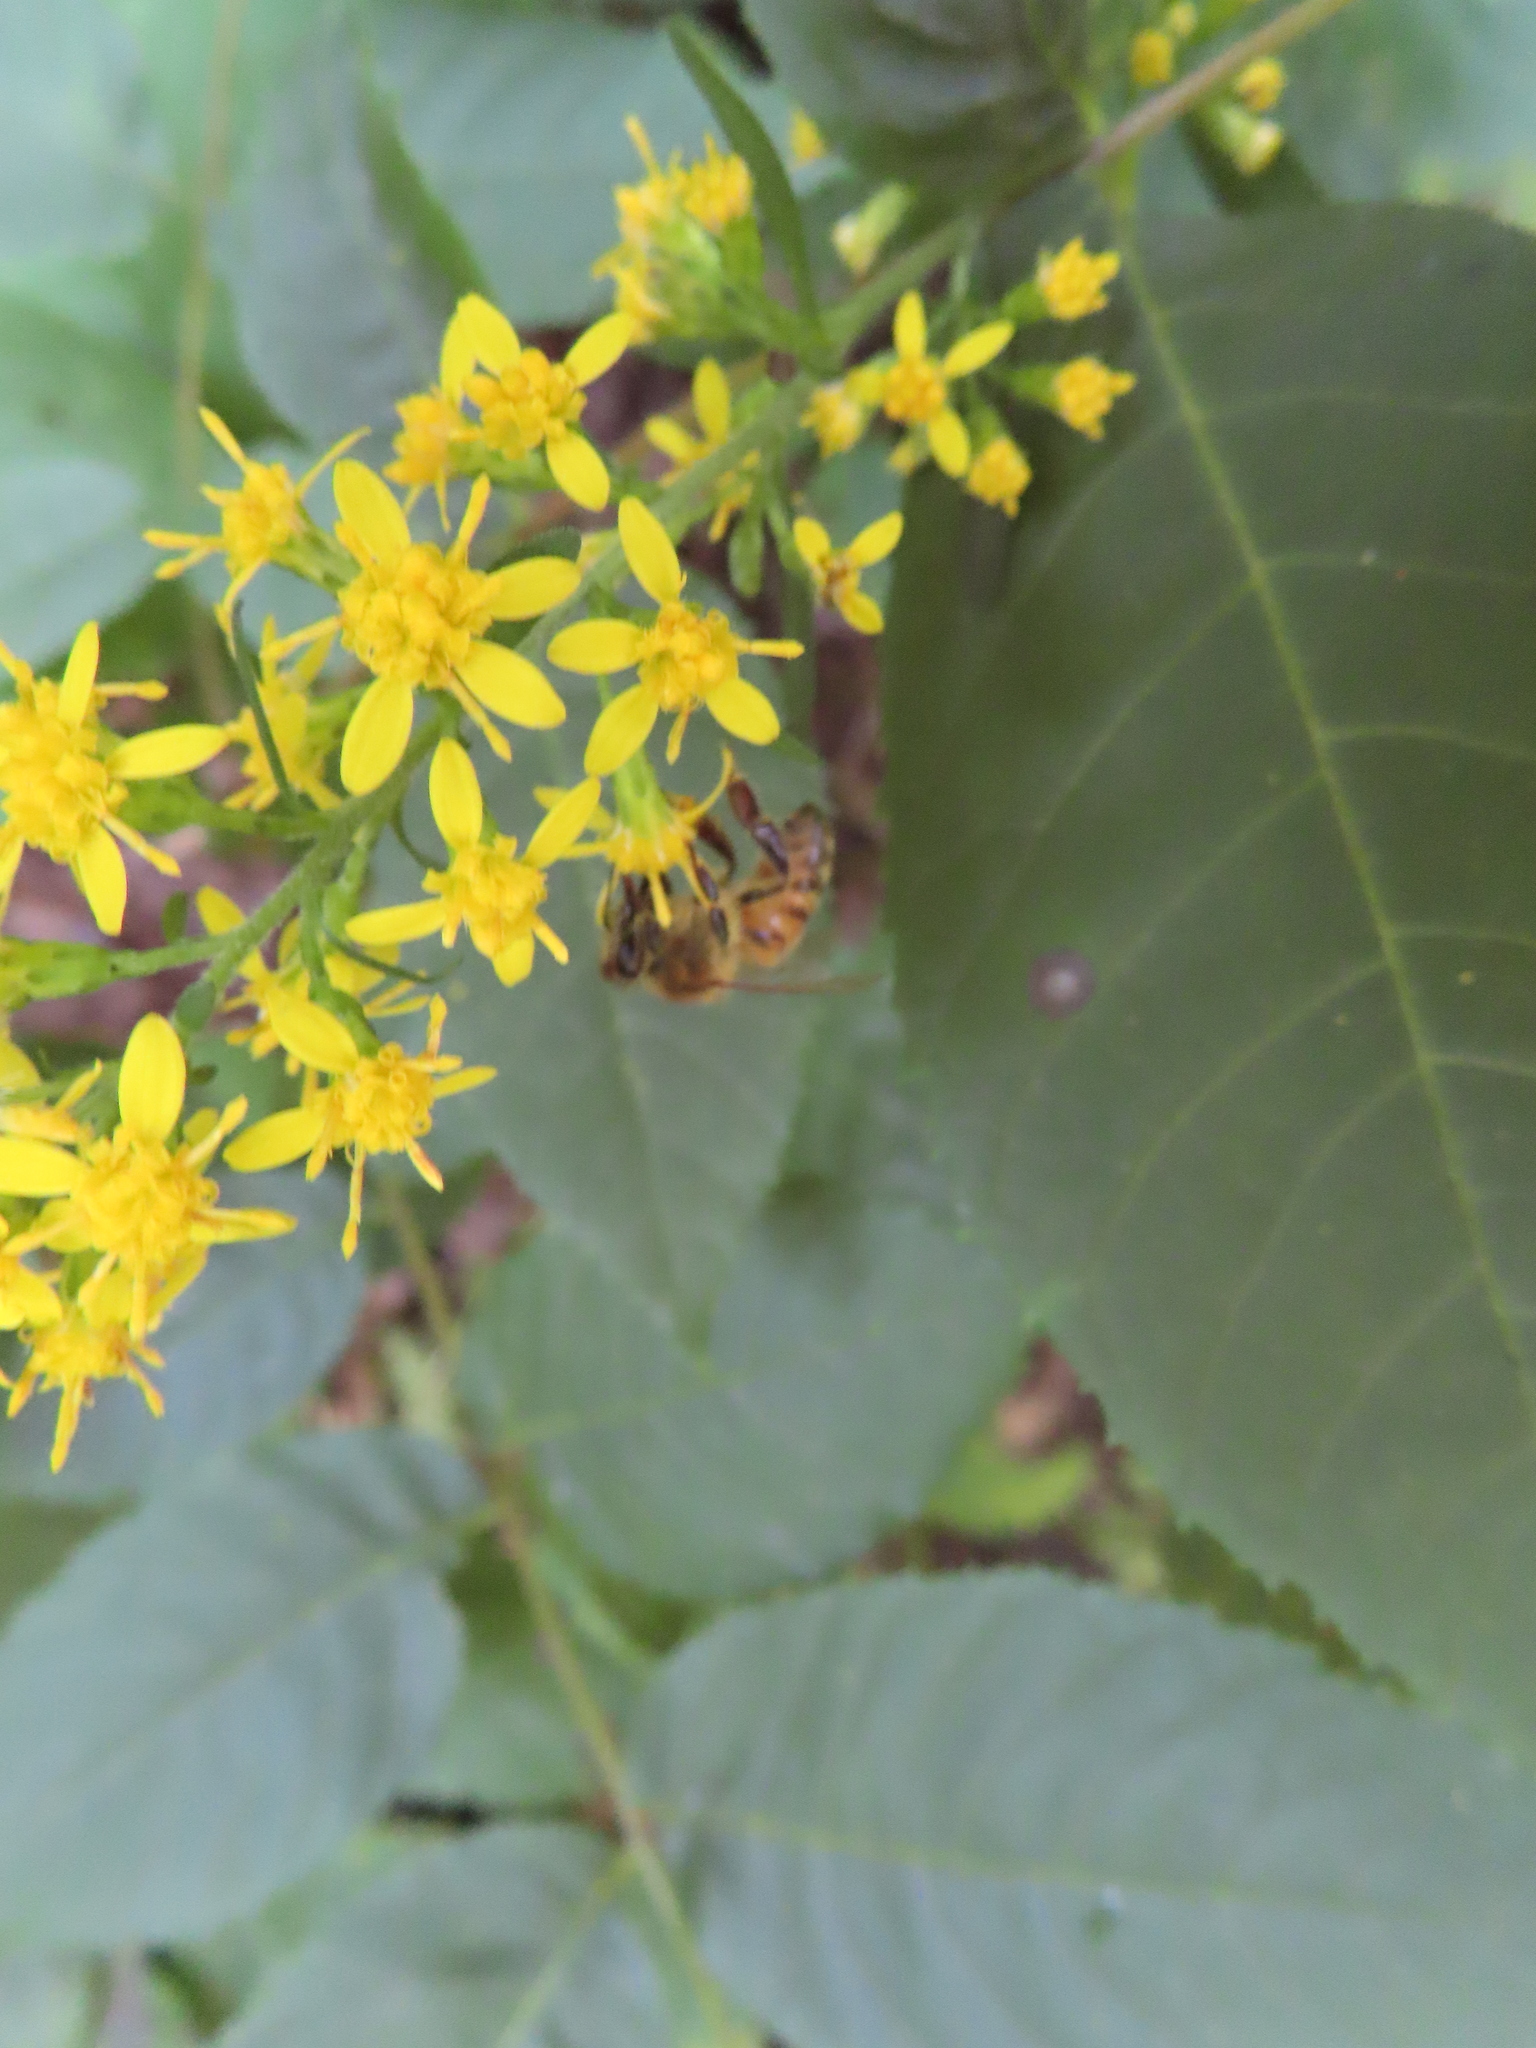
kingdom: Animalia
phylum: Arthropoda
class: Insecta
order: Hymenoptera
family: Apidae
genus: Apis
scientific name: Apis mellifera
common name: Honey bee
